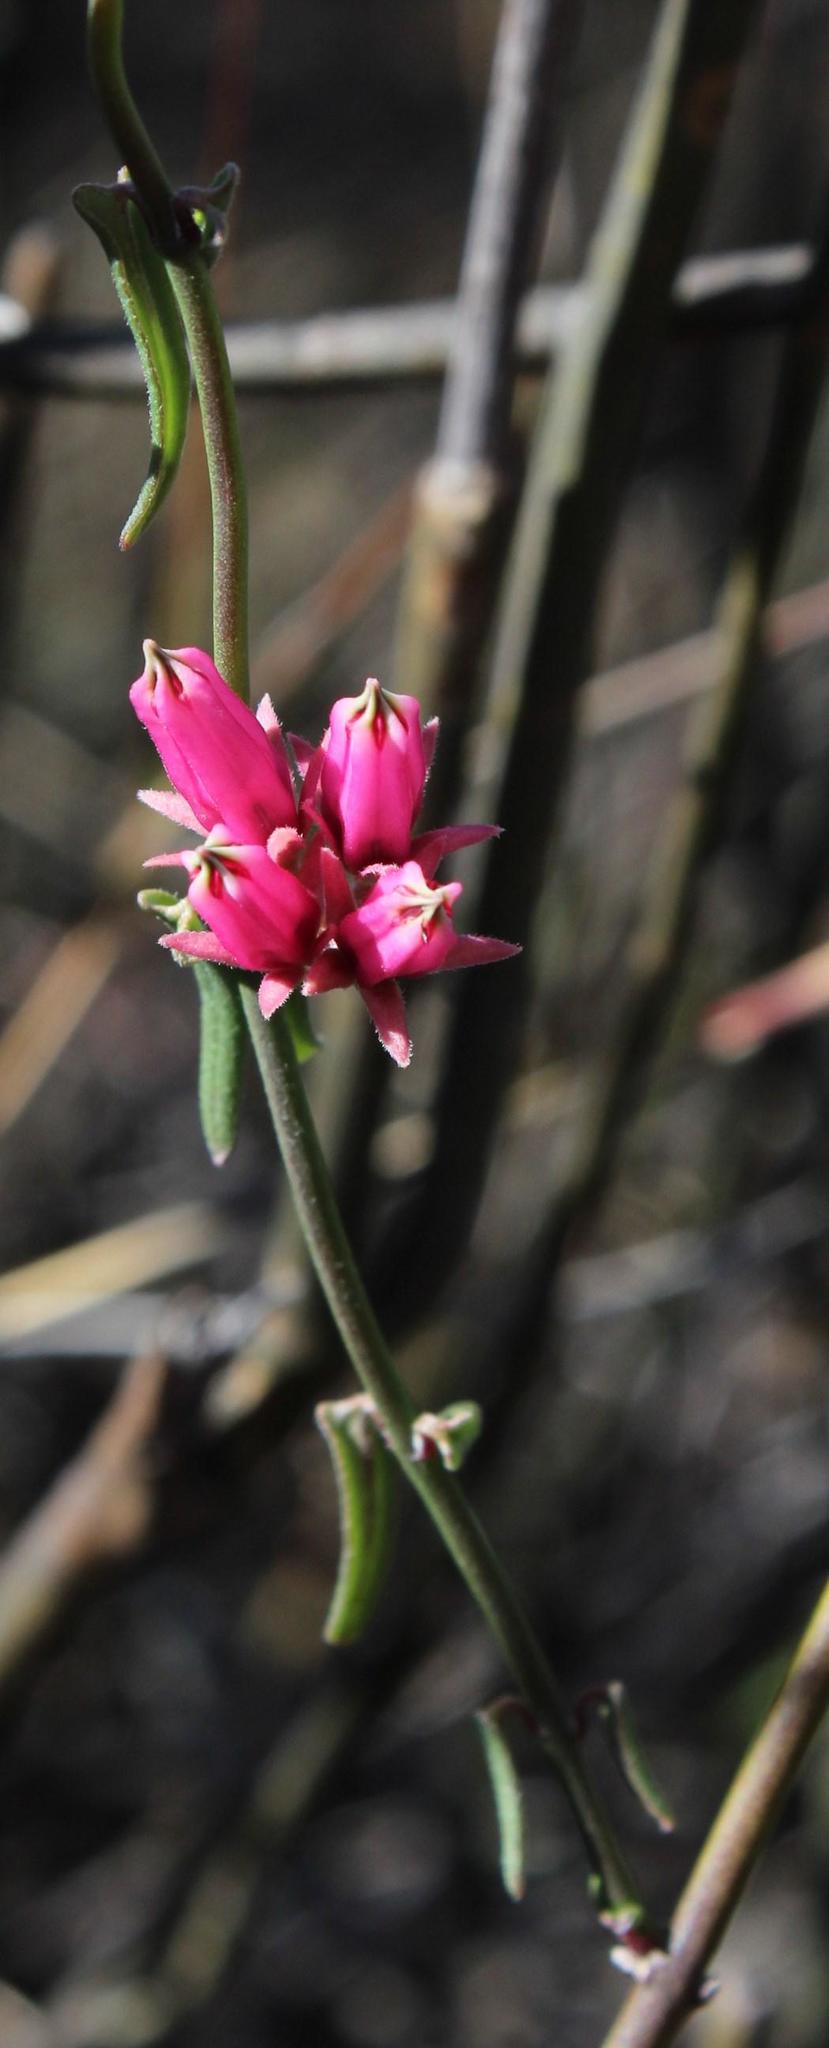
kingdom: Plantae
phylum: Tracheophyta
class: Magnoliopsida
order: Gentianales
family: Apocynaceae
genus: Microloma
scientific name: Microloma sagittatum
